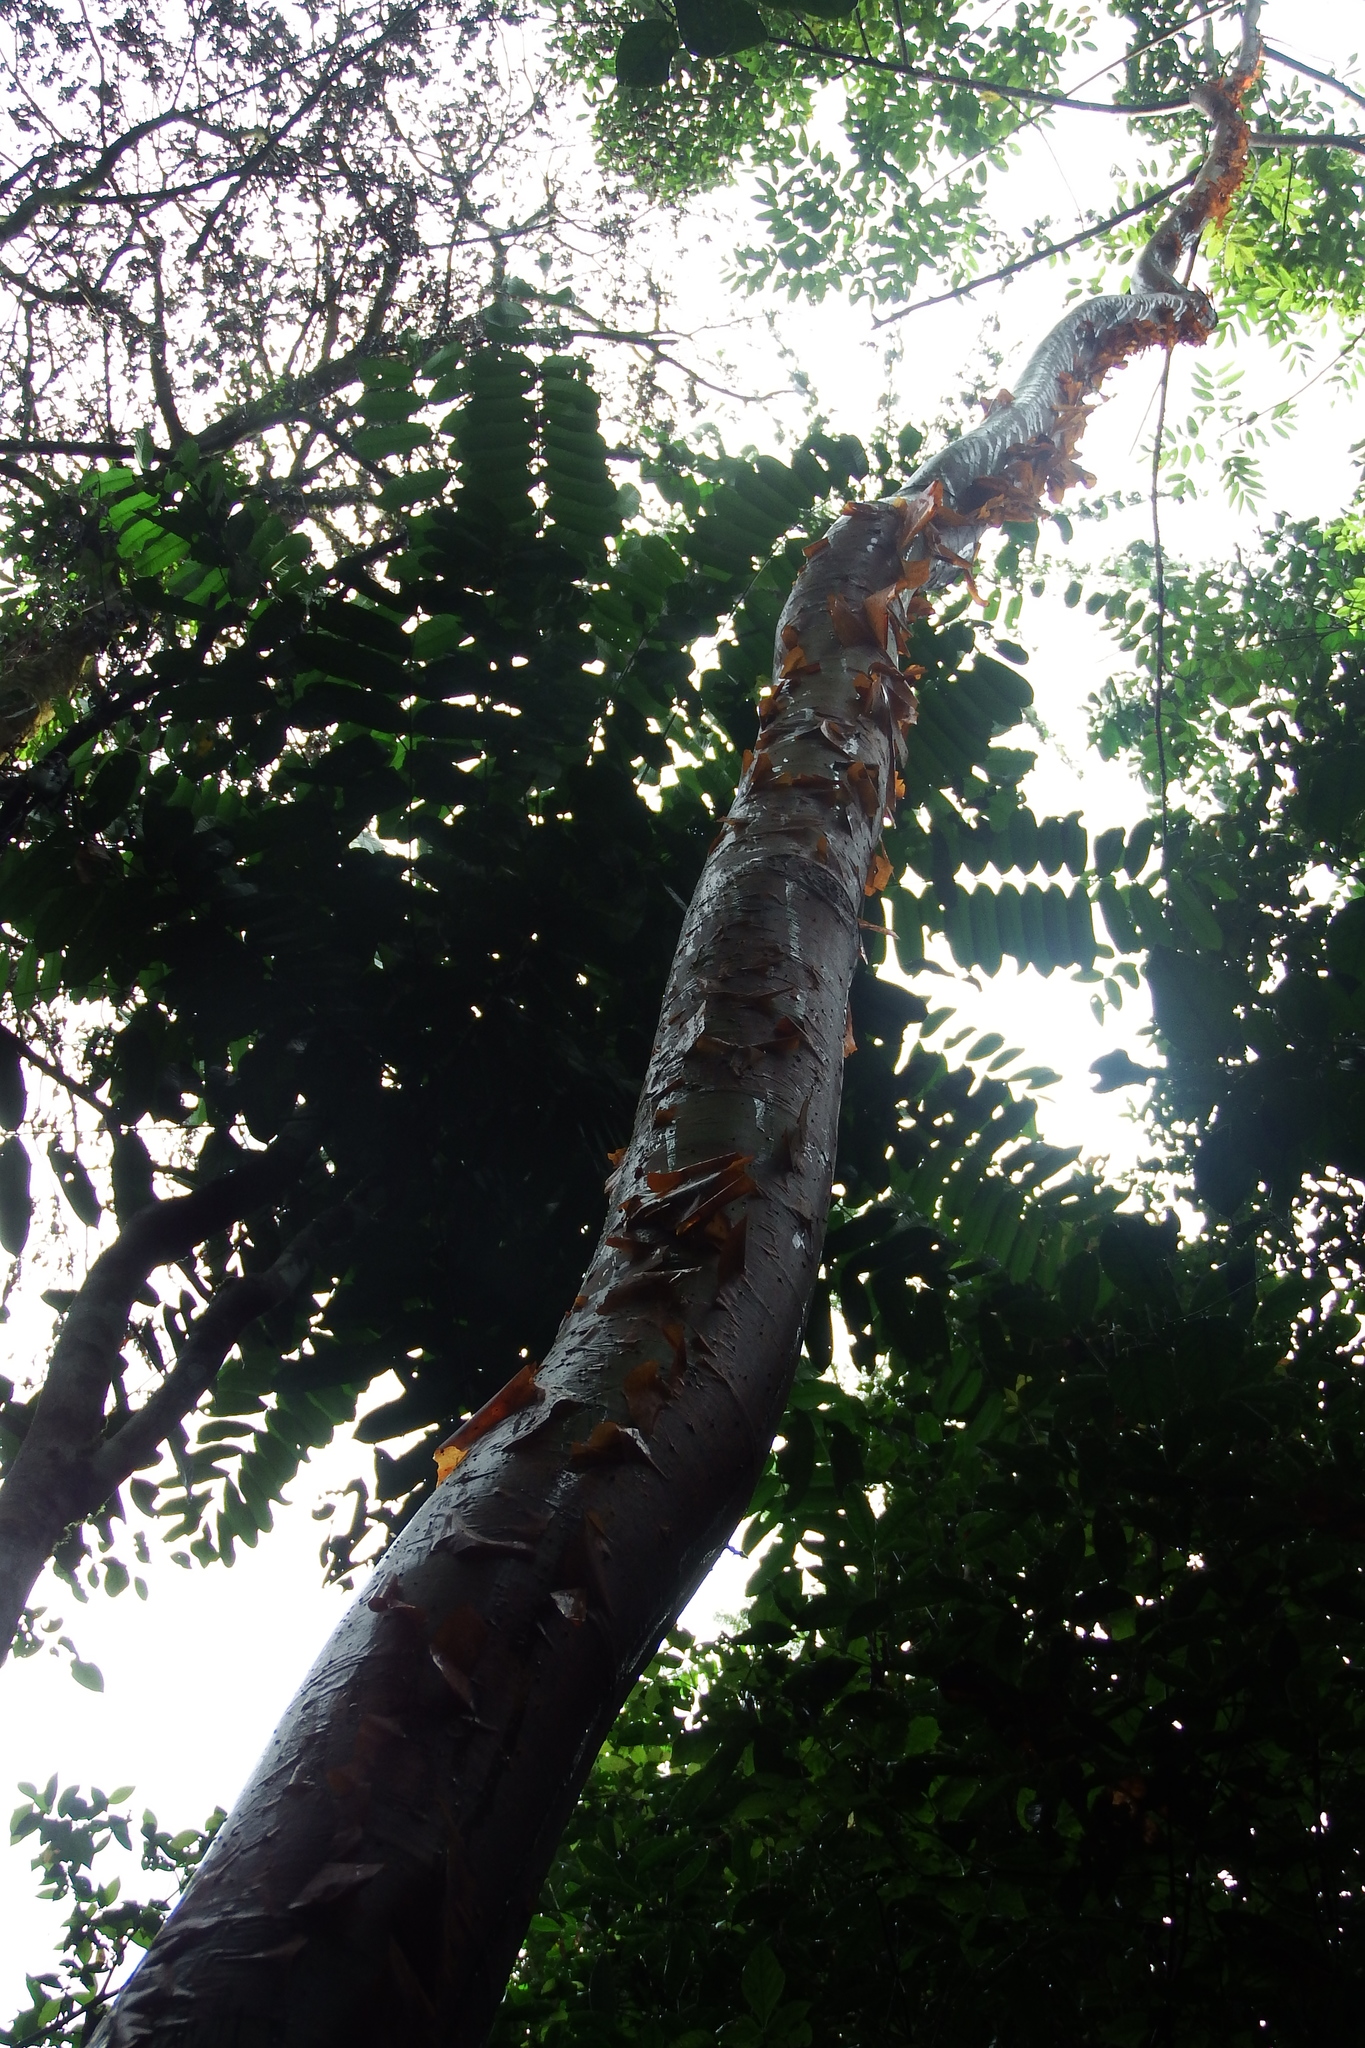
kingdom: Plantae
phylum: Tracheophyta
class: Magnoliopsida
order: Sapindales
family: Burseraceae
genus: Bursera
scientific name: Bursera simaruba
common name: Turpentine tree
